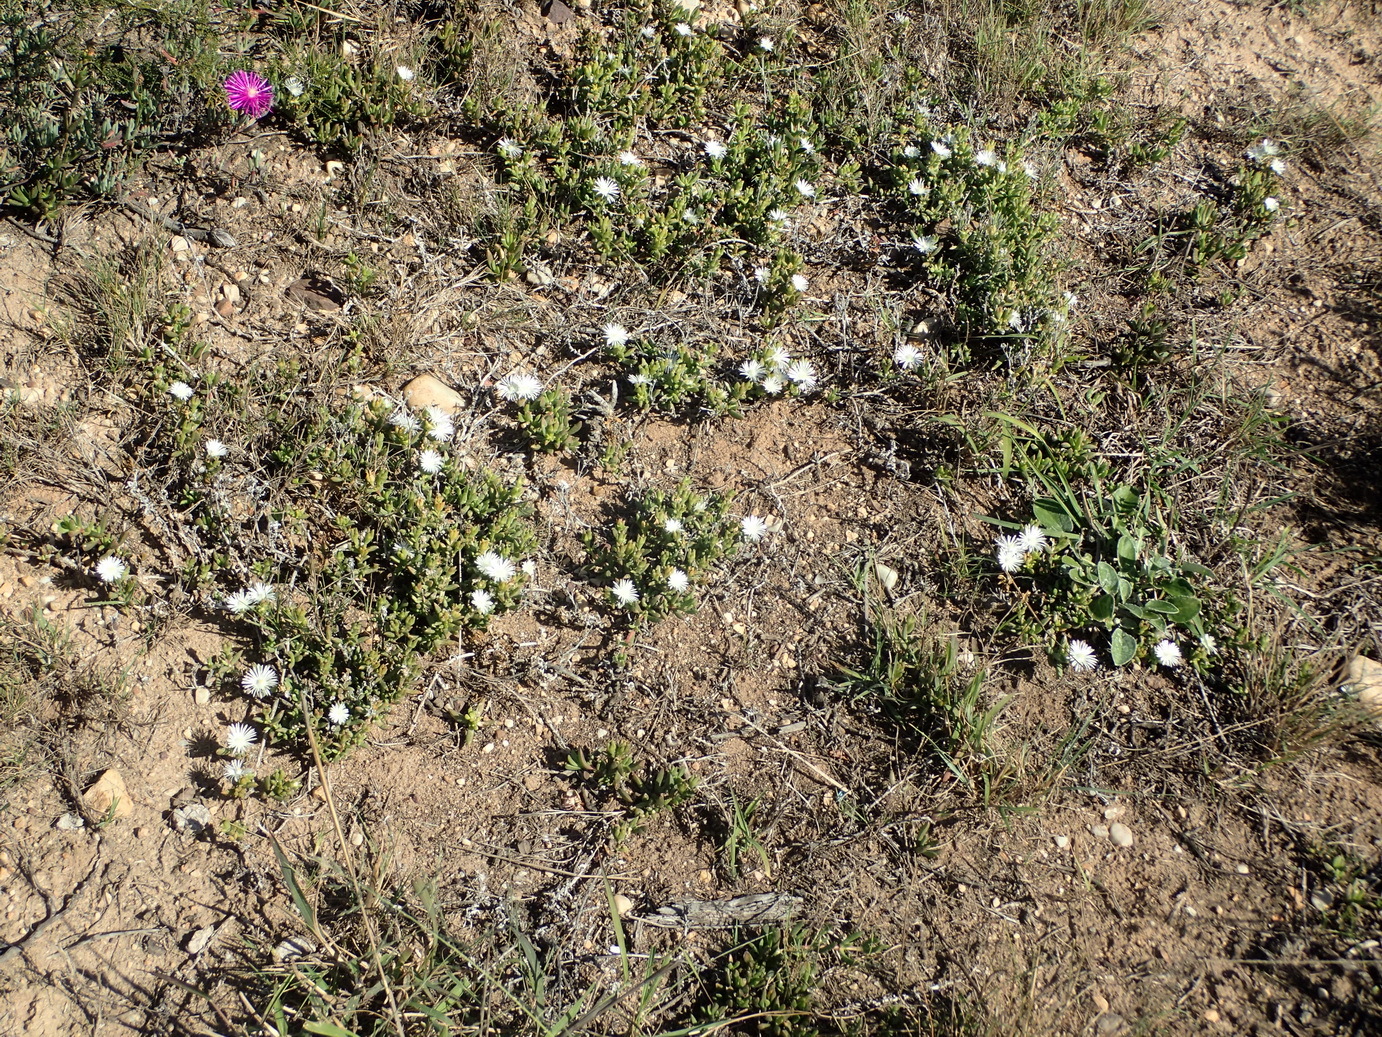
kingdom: Plantae
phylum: Tracheophyta
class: Magnoliopsida
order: Caryophyllales
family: Aizoaceae
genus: Delosperma
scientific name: Delosperma uncinatum
